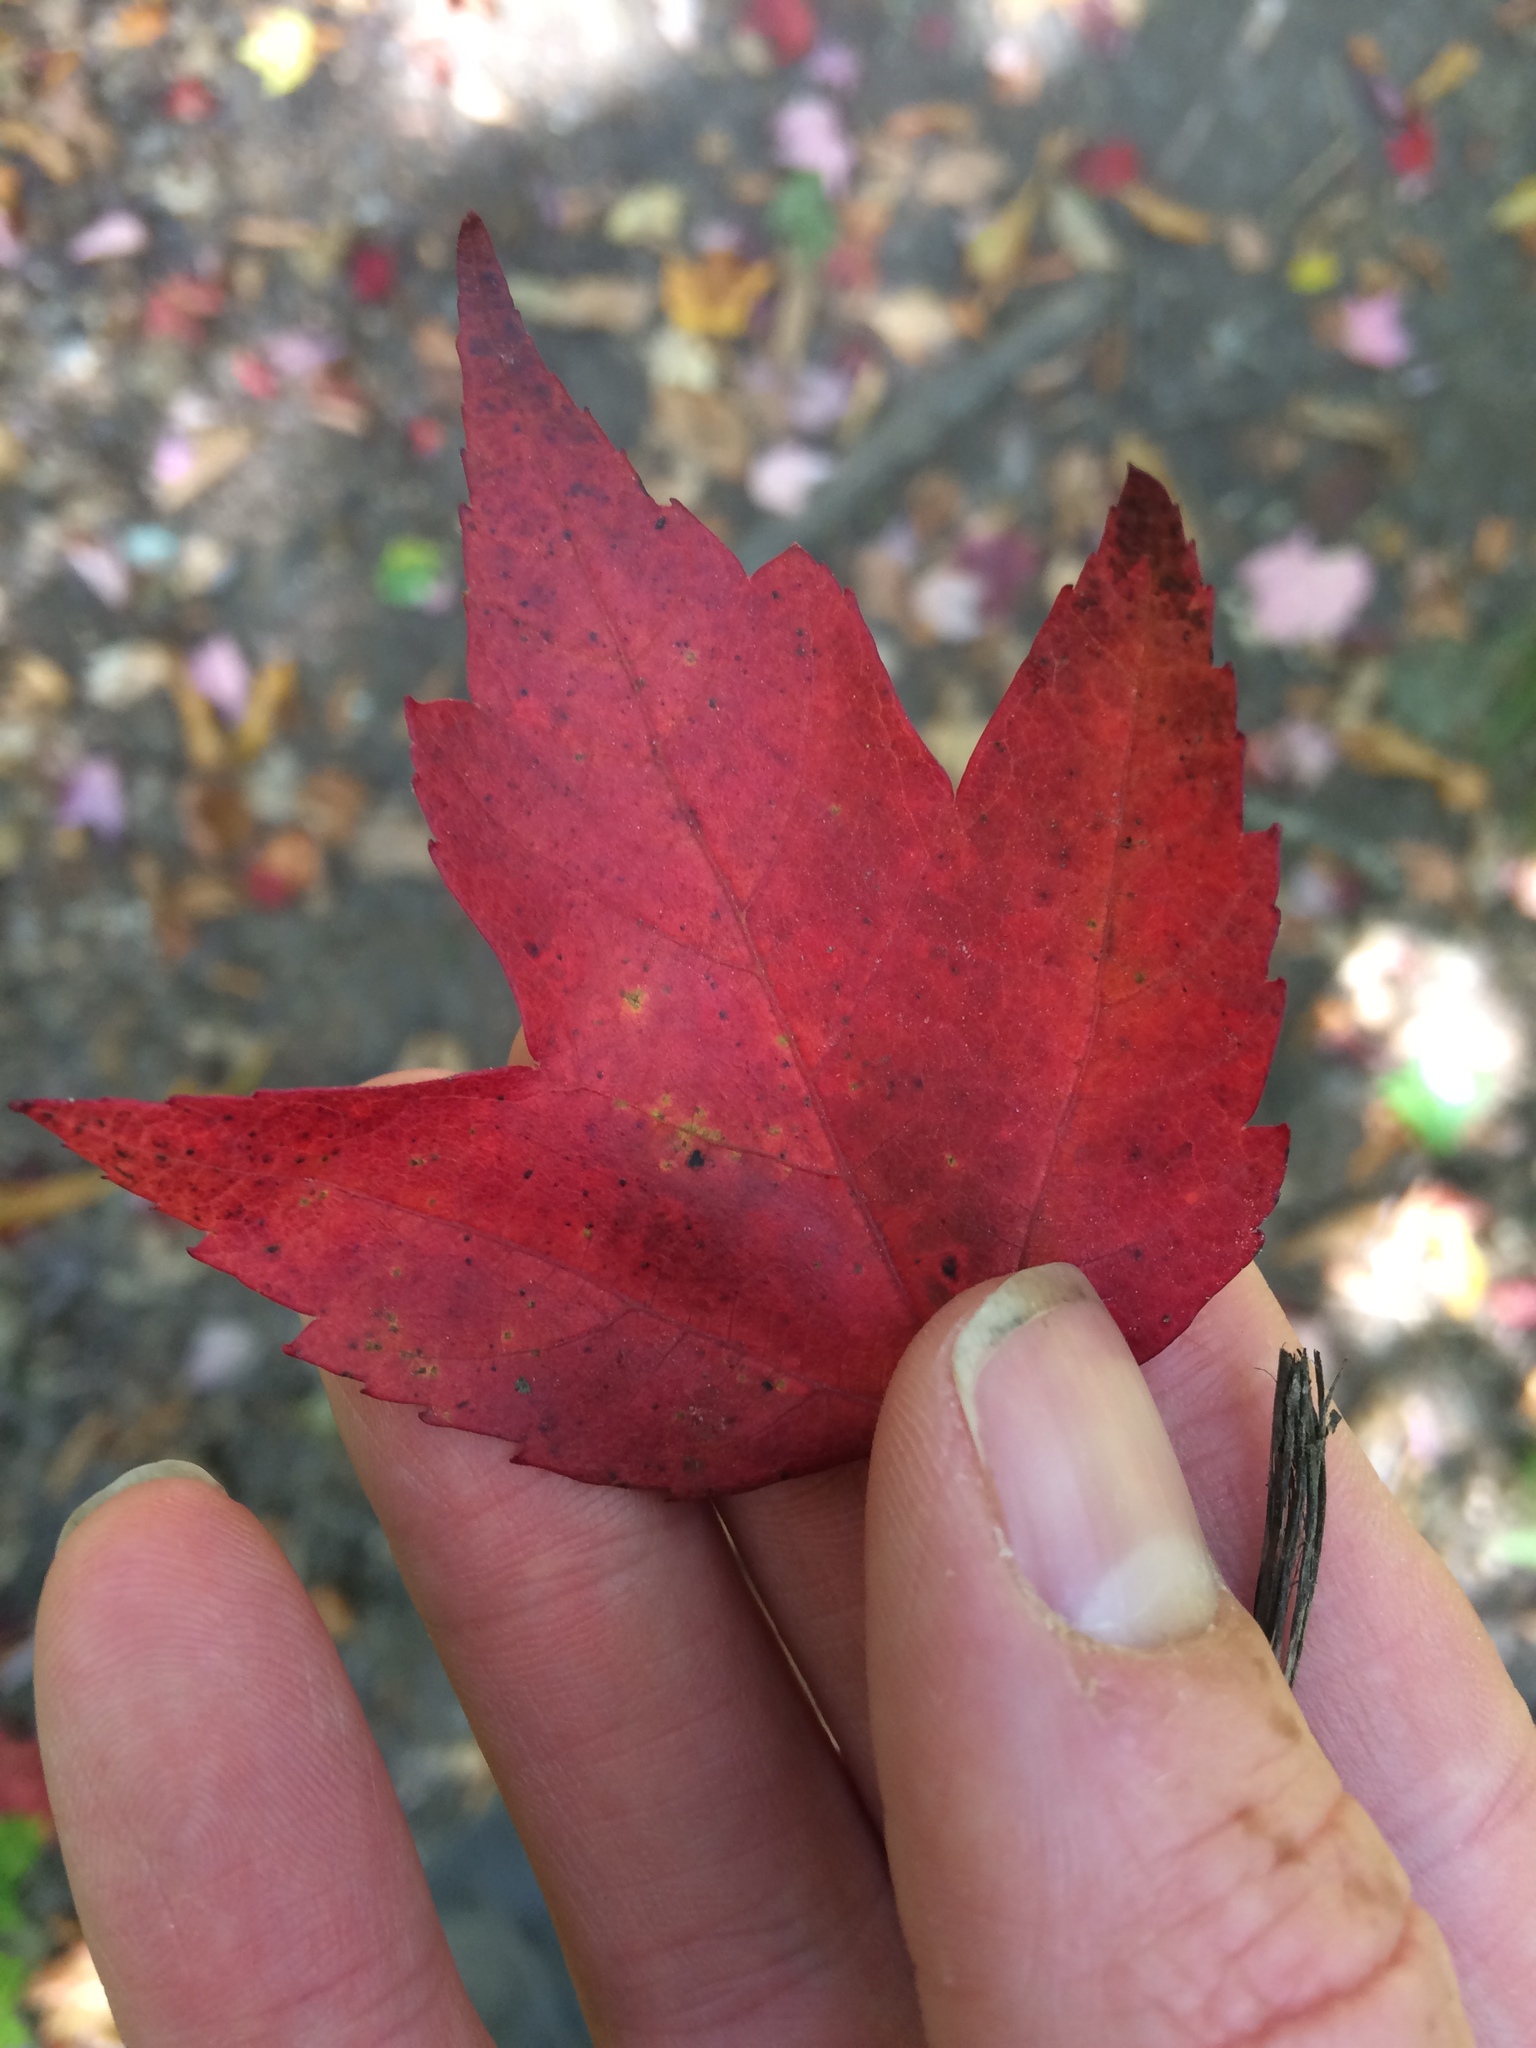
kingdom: Plantae
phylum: Tracheophyta
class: Magnoliopsida
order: Sapindales
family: Sapindaceae
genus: Acer
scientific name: Acer rubrum
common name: Red maple
